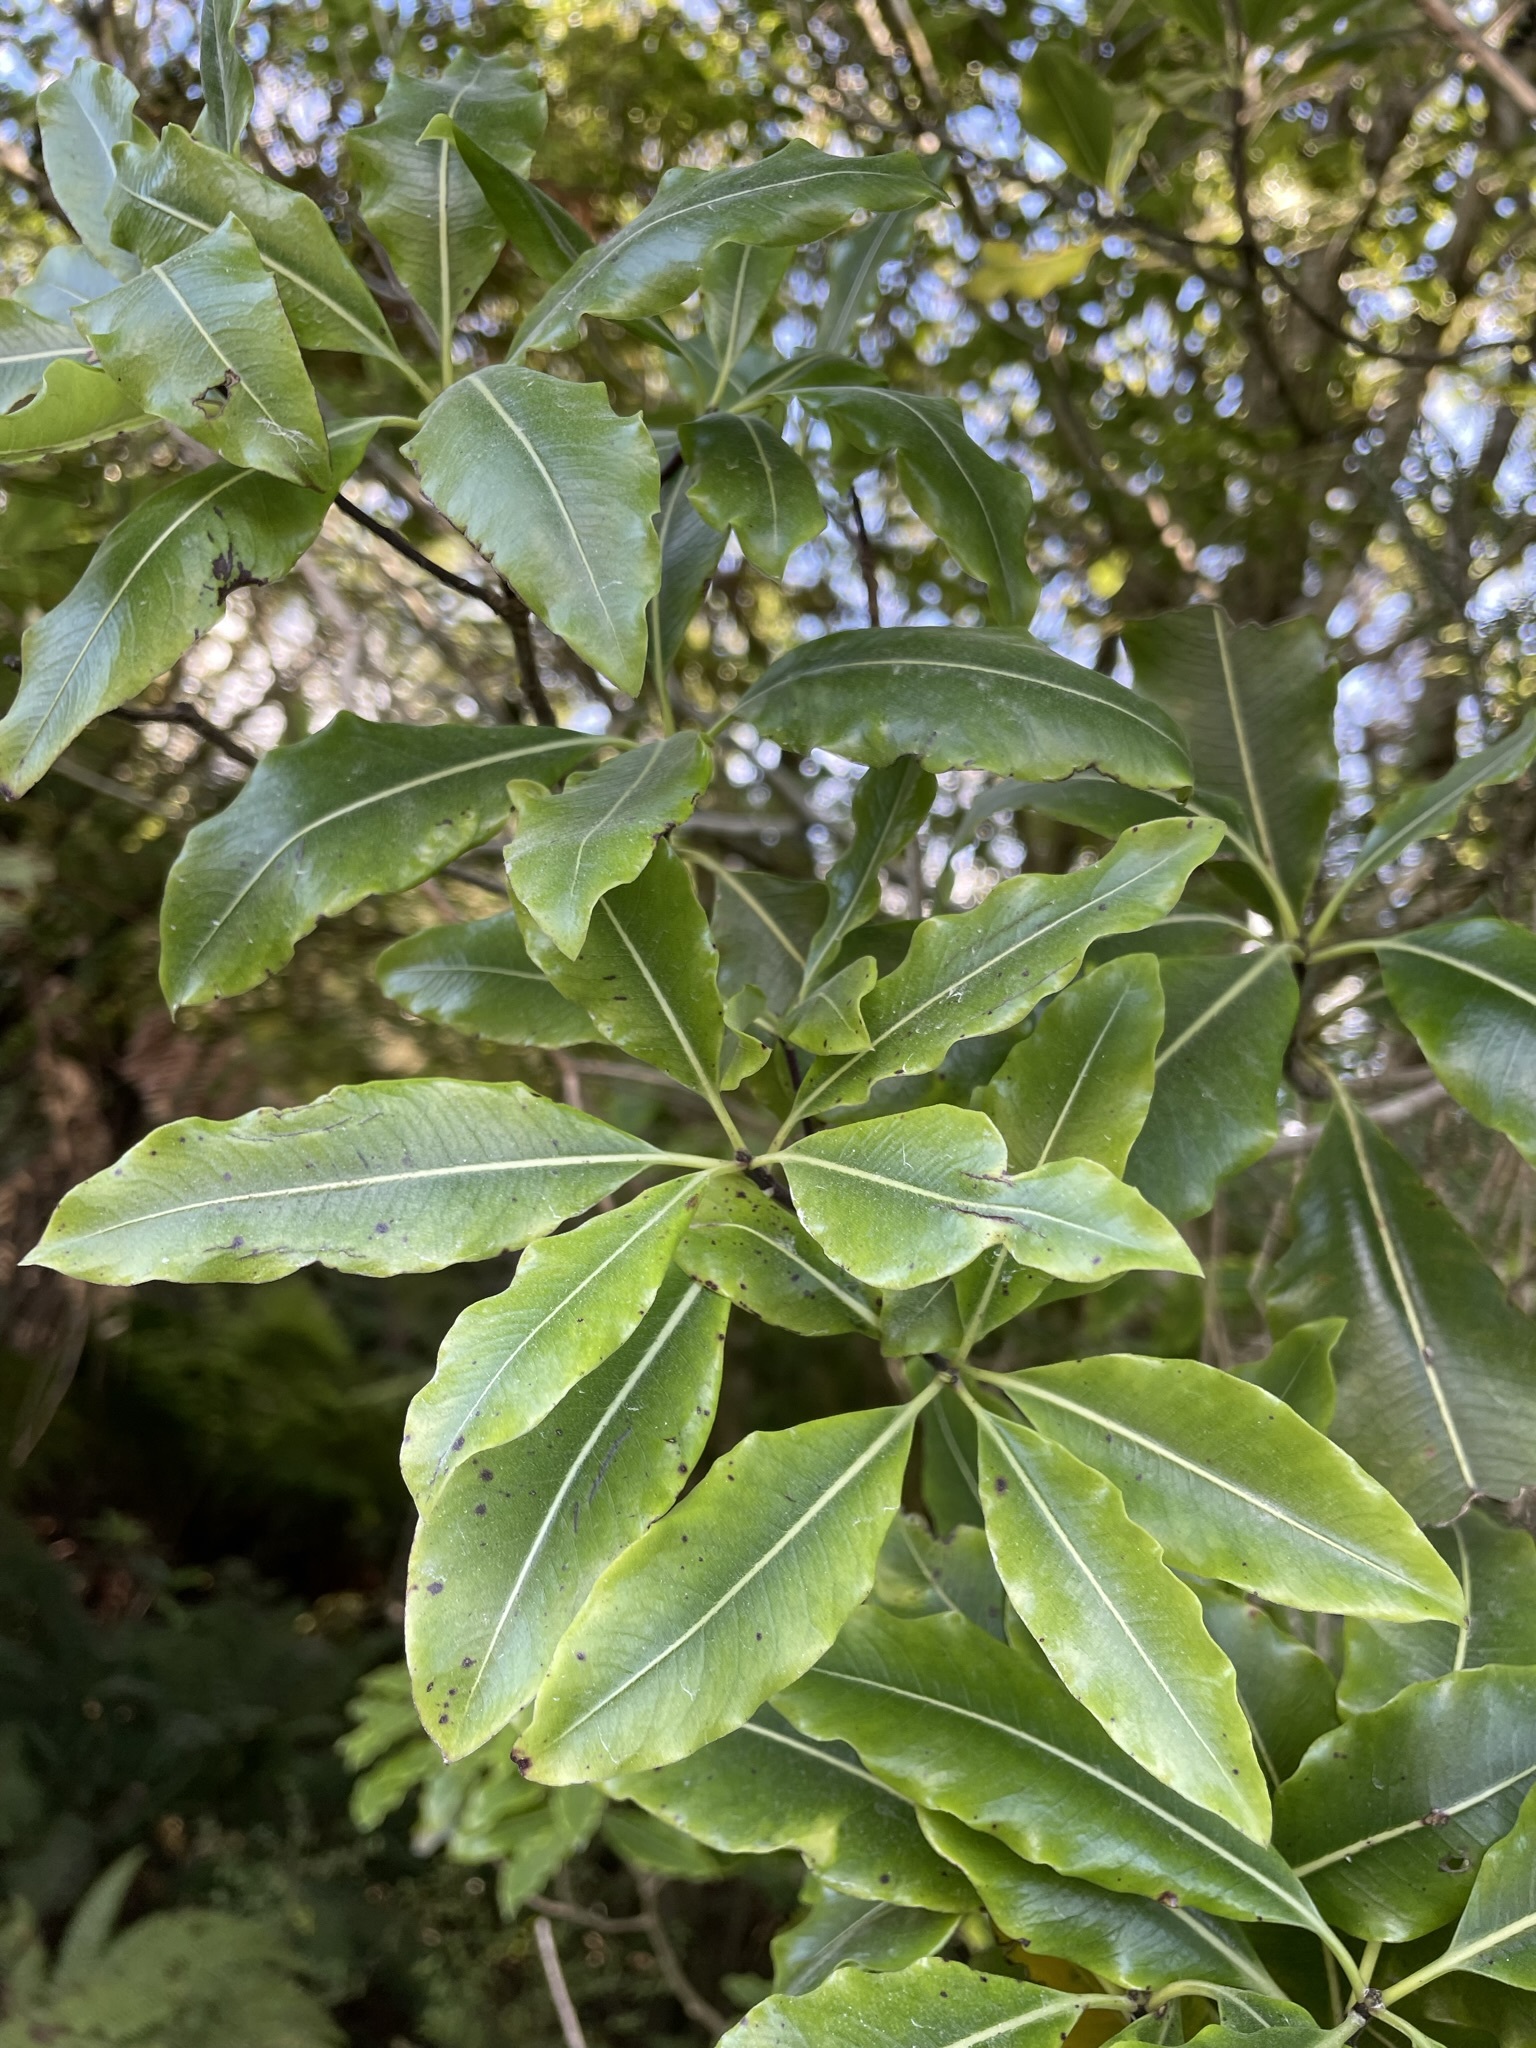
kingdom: Plantae
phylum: Tracheophyta
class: Magnoliopsida
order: Apiales
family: Pittosporaceae
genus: Pittosporum
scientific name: Pittosporum eugenioides
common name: Lemonwood
